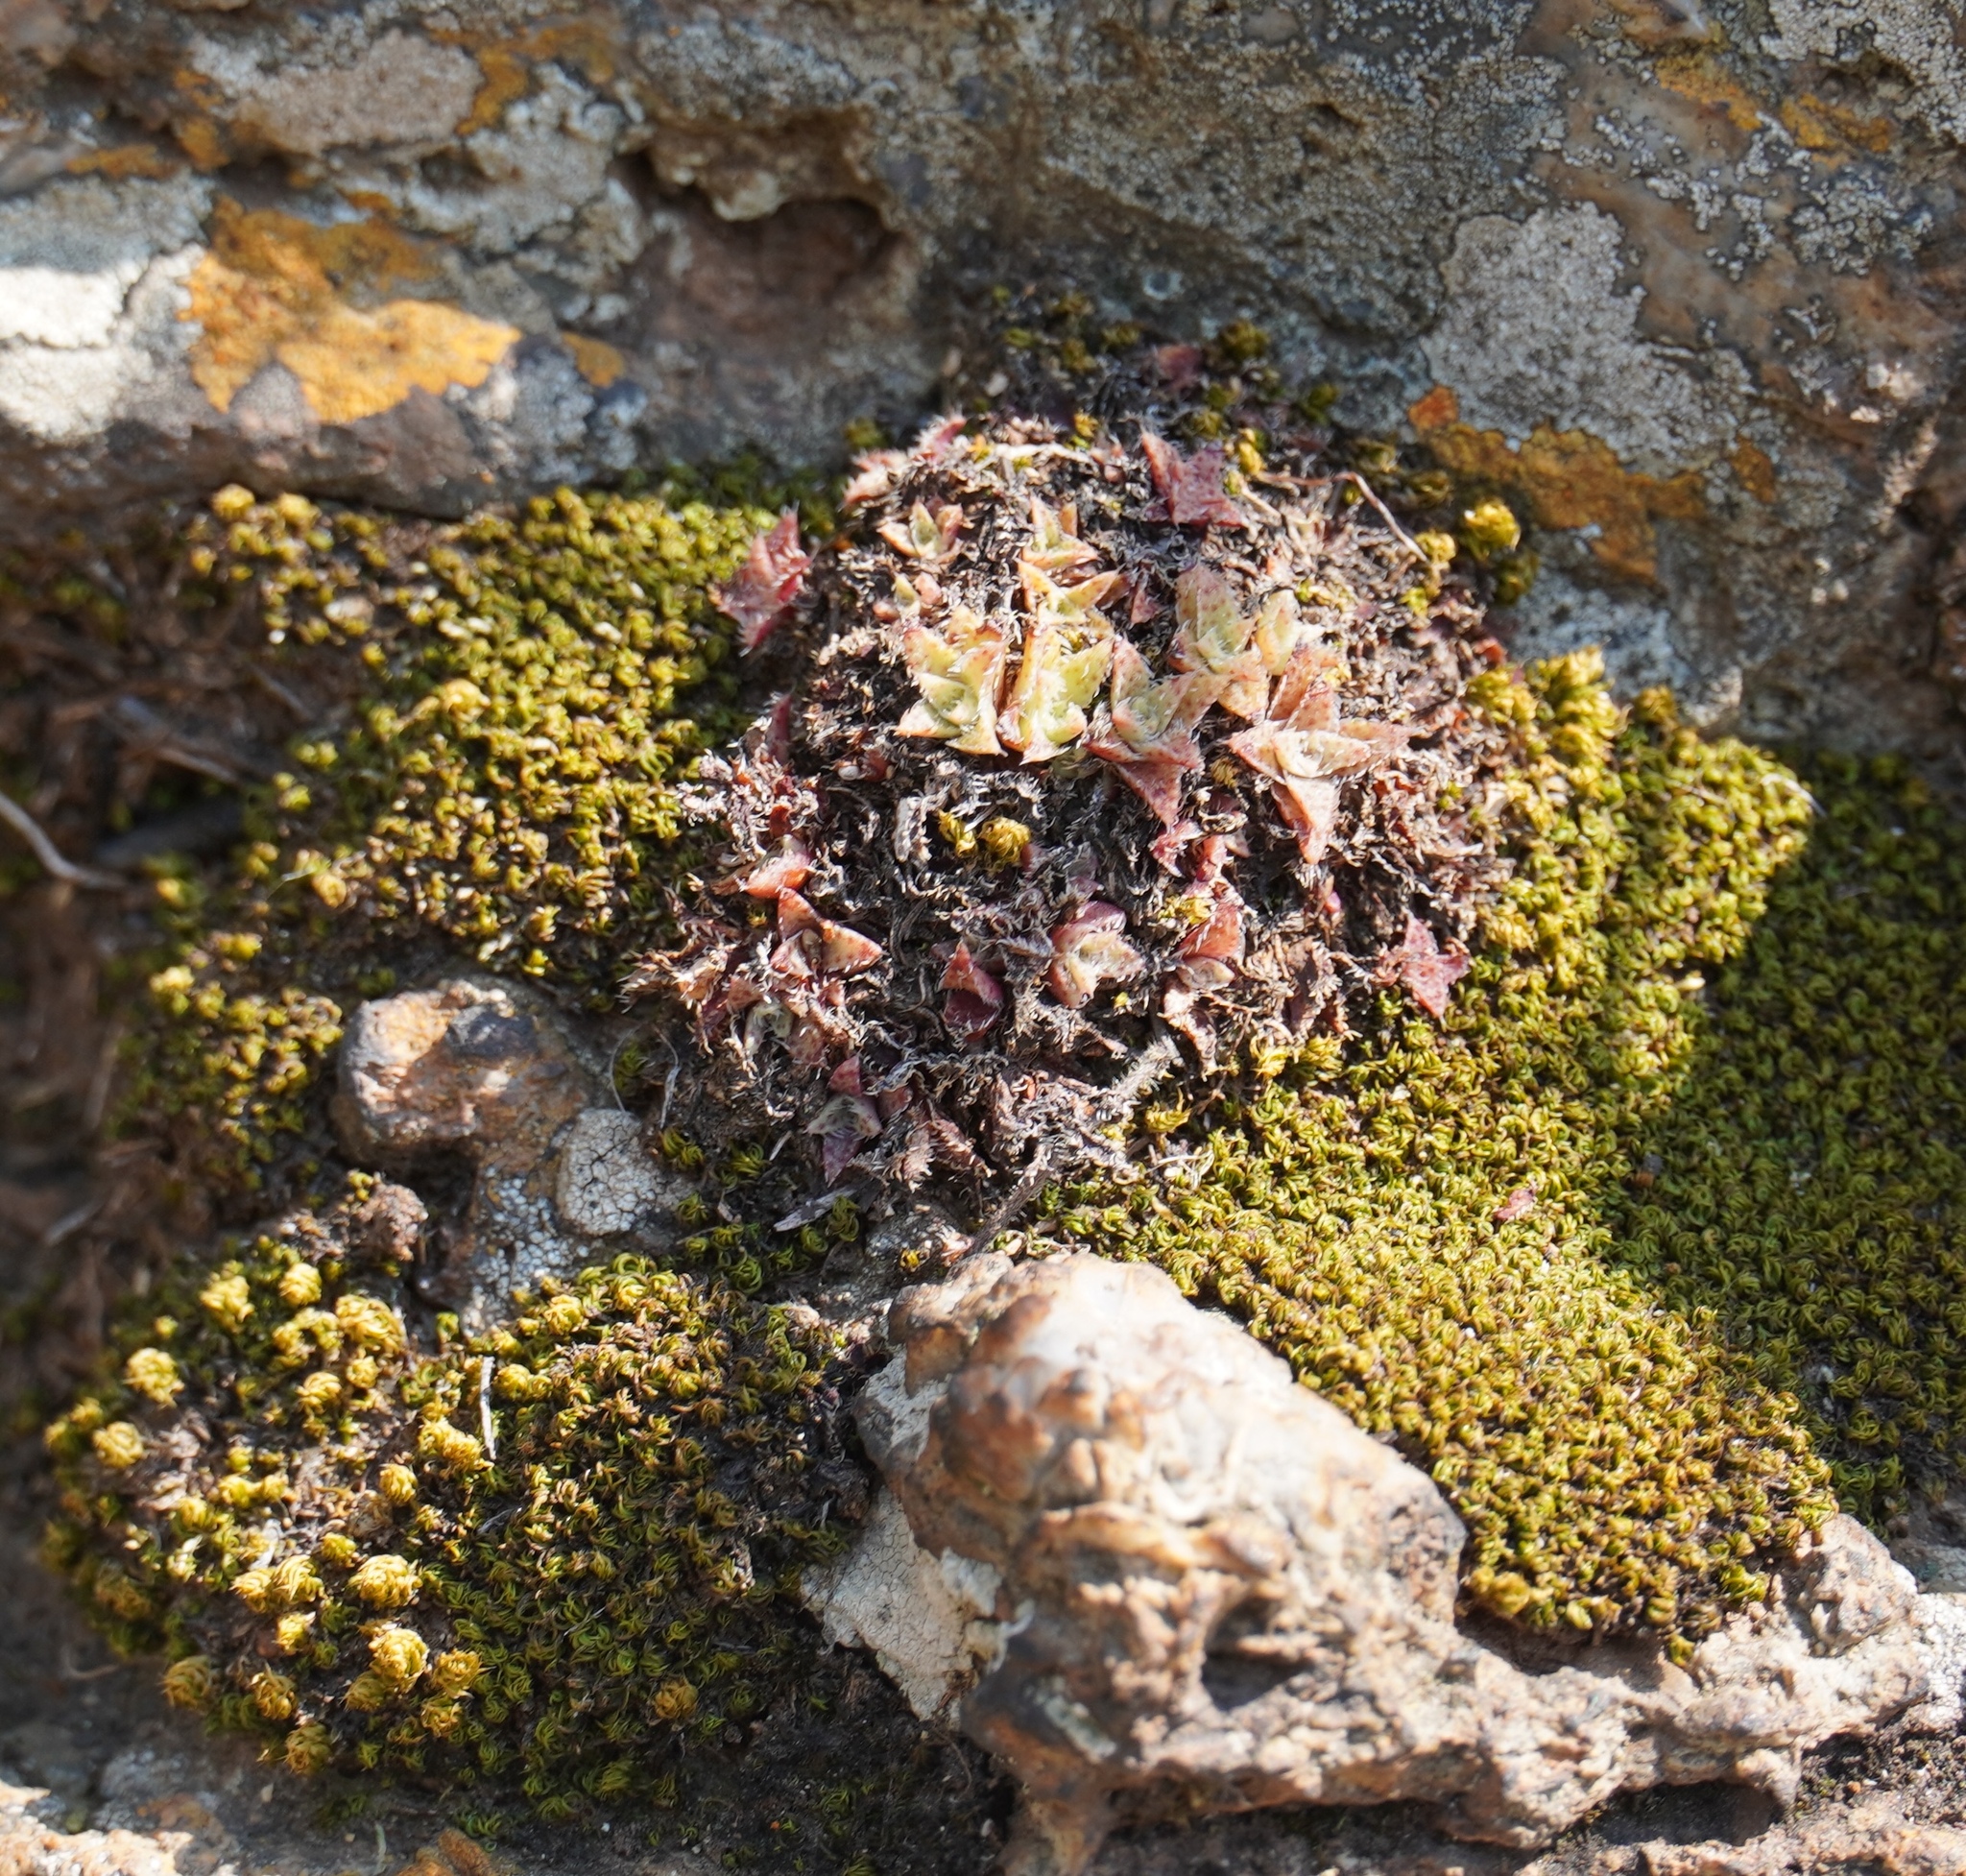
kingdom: Plantae
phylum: Tracheophyta
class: Magnoliopsida
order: Saxifragales
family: Crassulaceae
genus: Crassula
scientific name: Crassula setulosa
